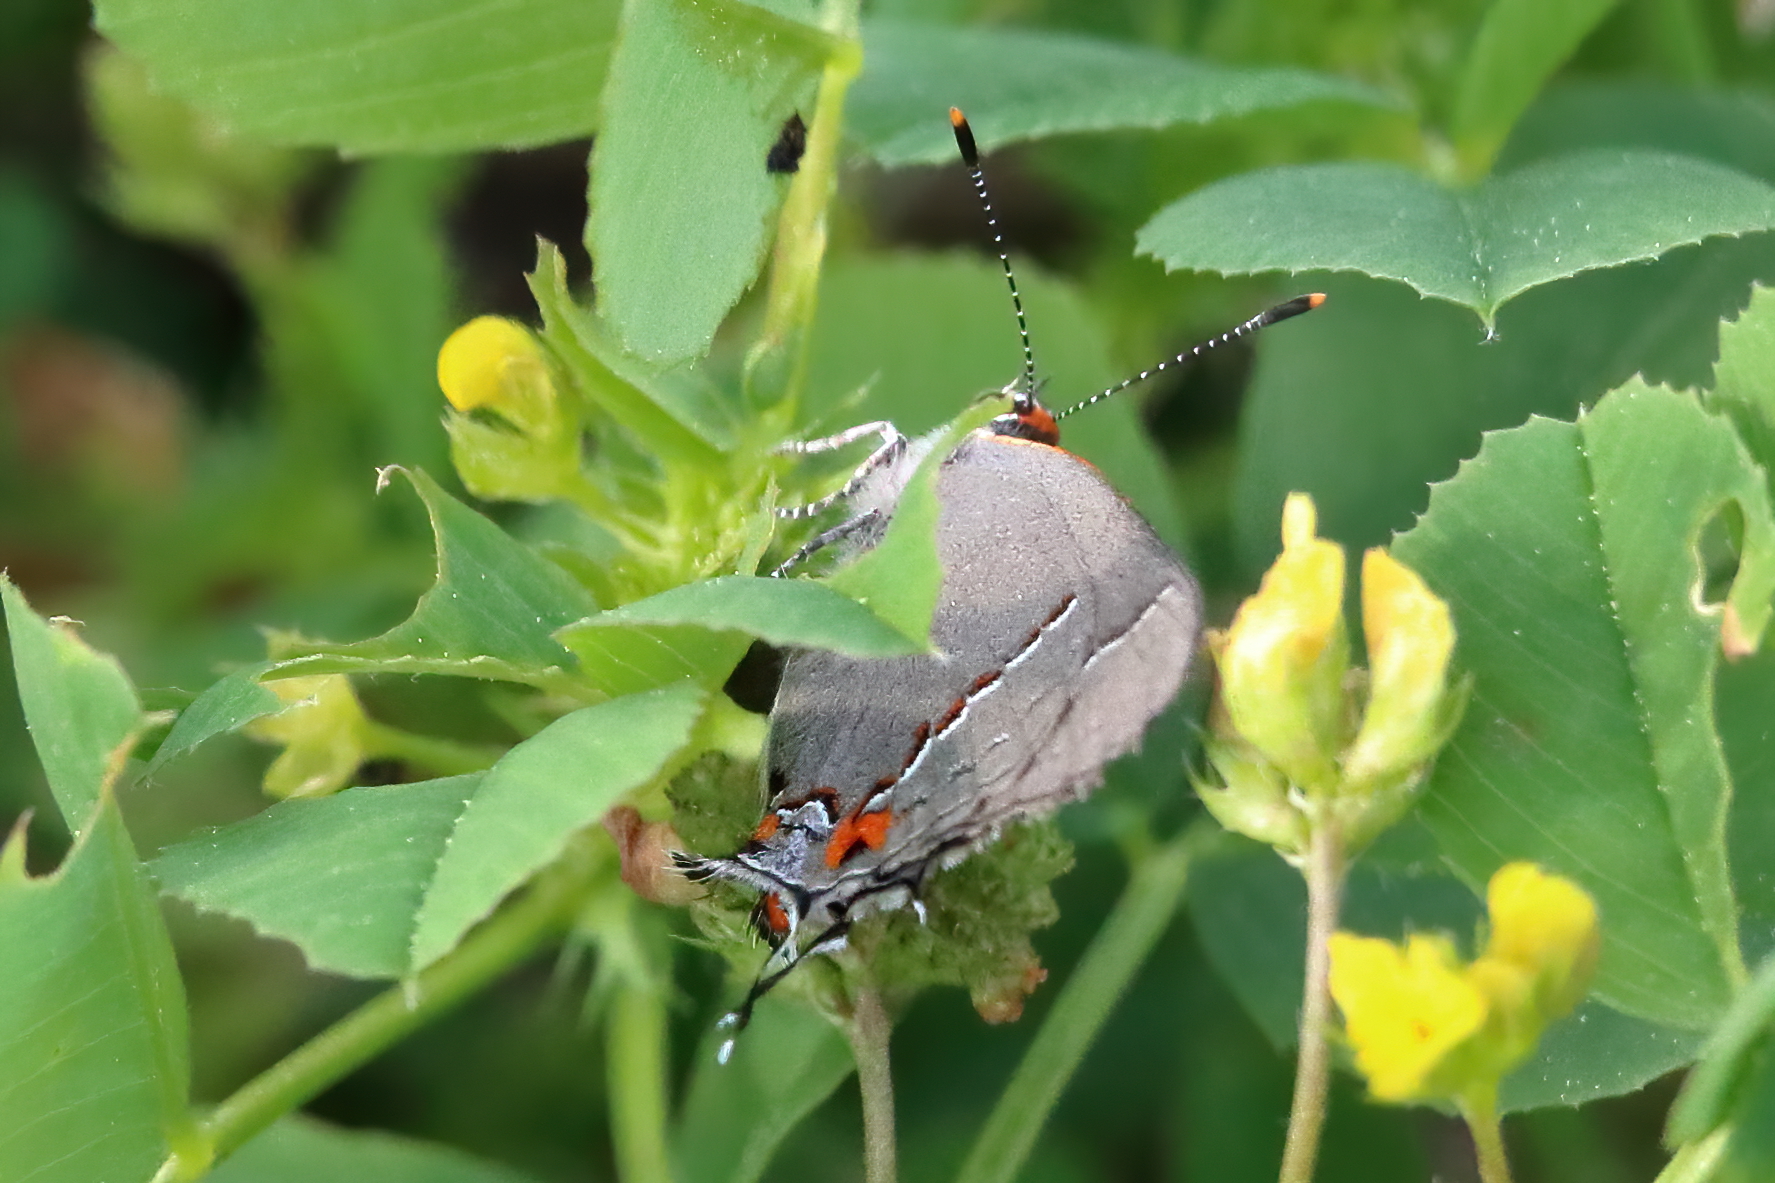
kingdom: Animalia
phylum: Arthropoda
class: Insecta
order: Lepidoptera
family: Lycaenidae
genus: Strymon
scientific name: Strymon melinus
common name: Gray hairstreak
